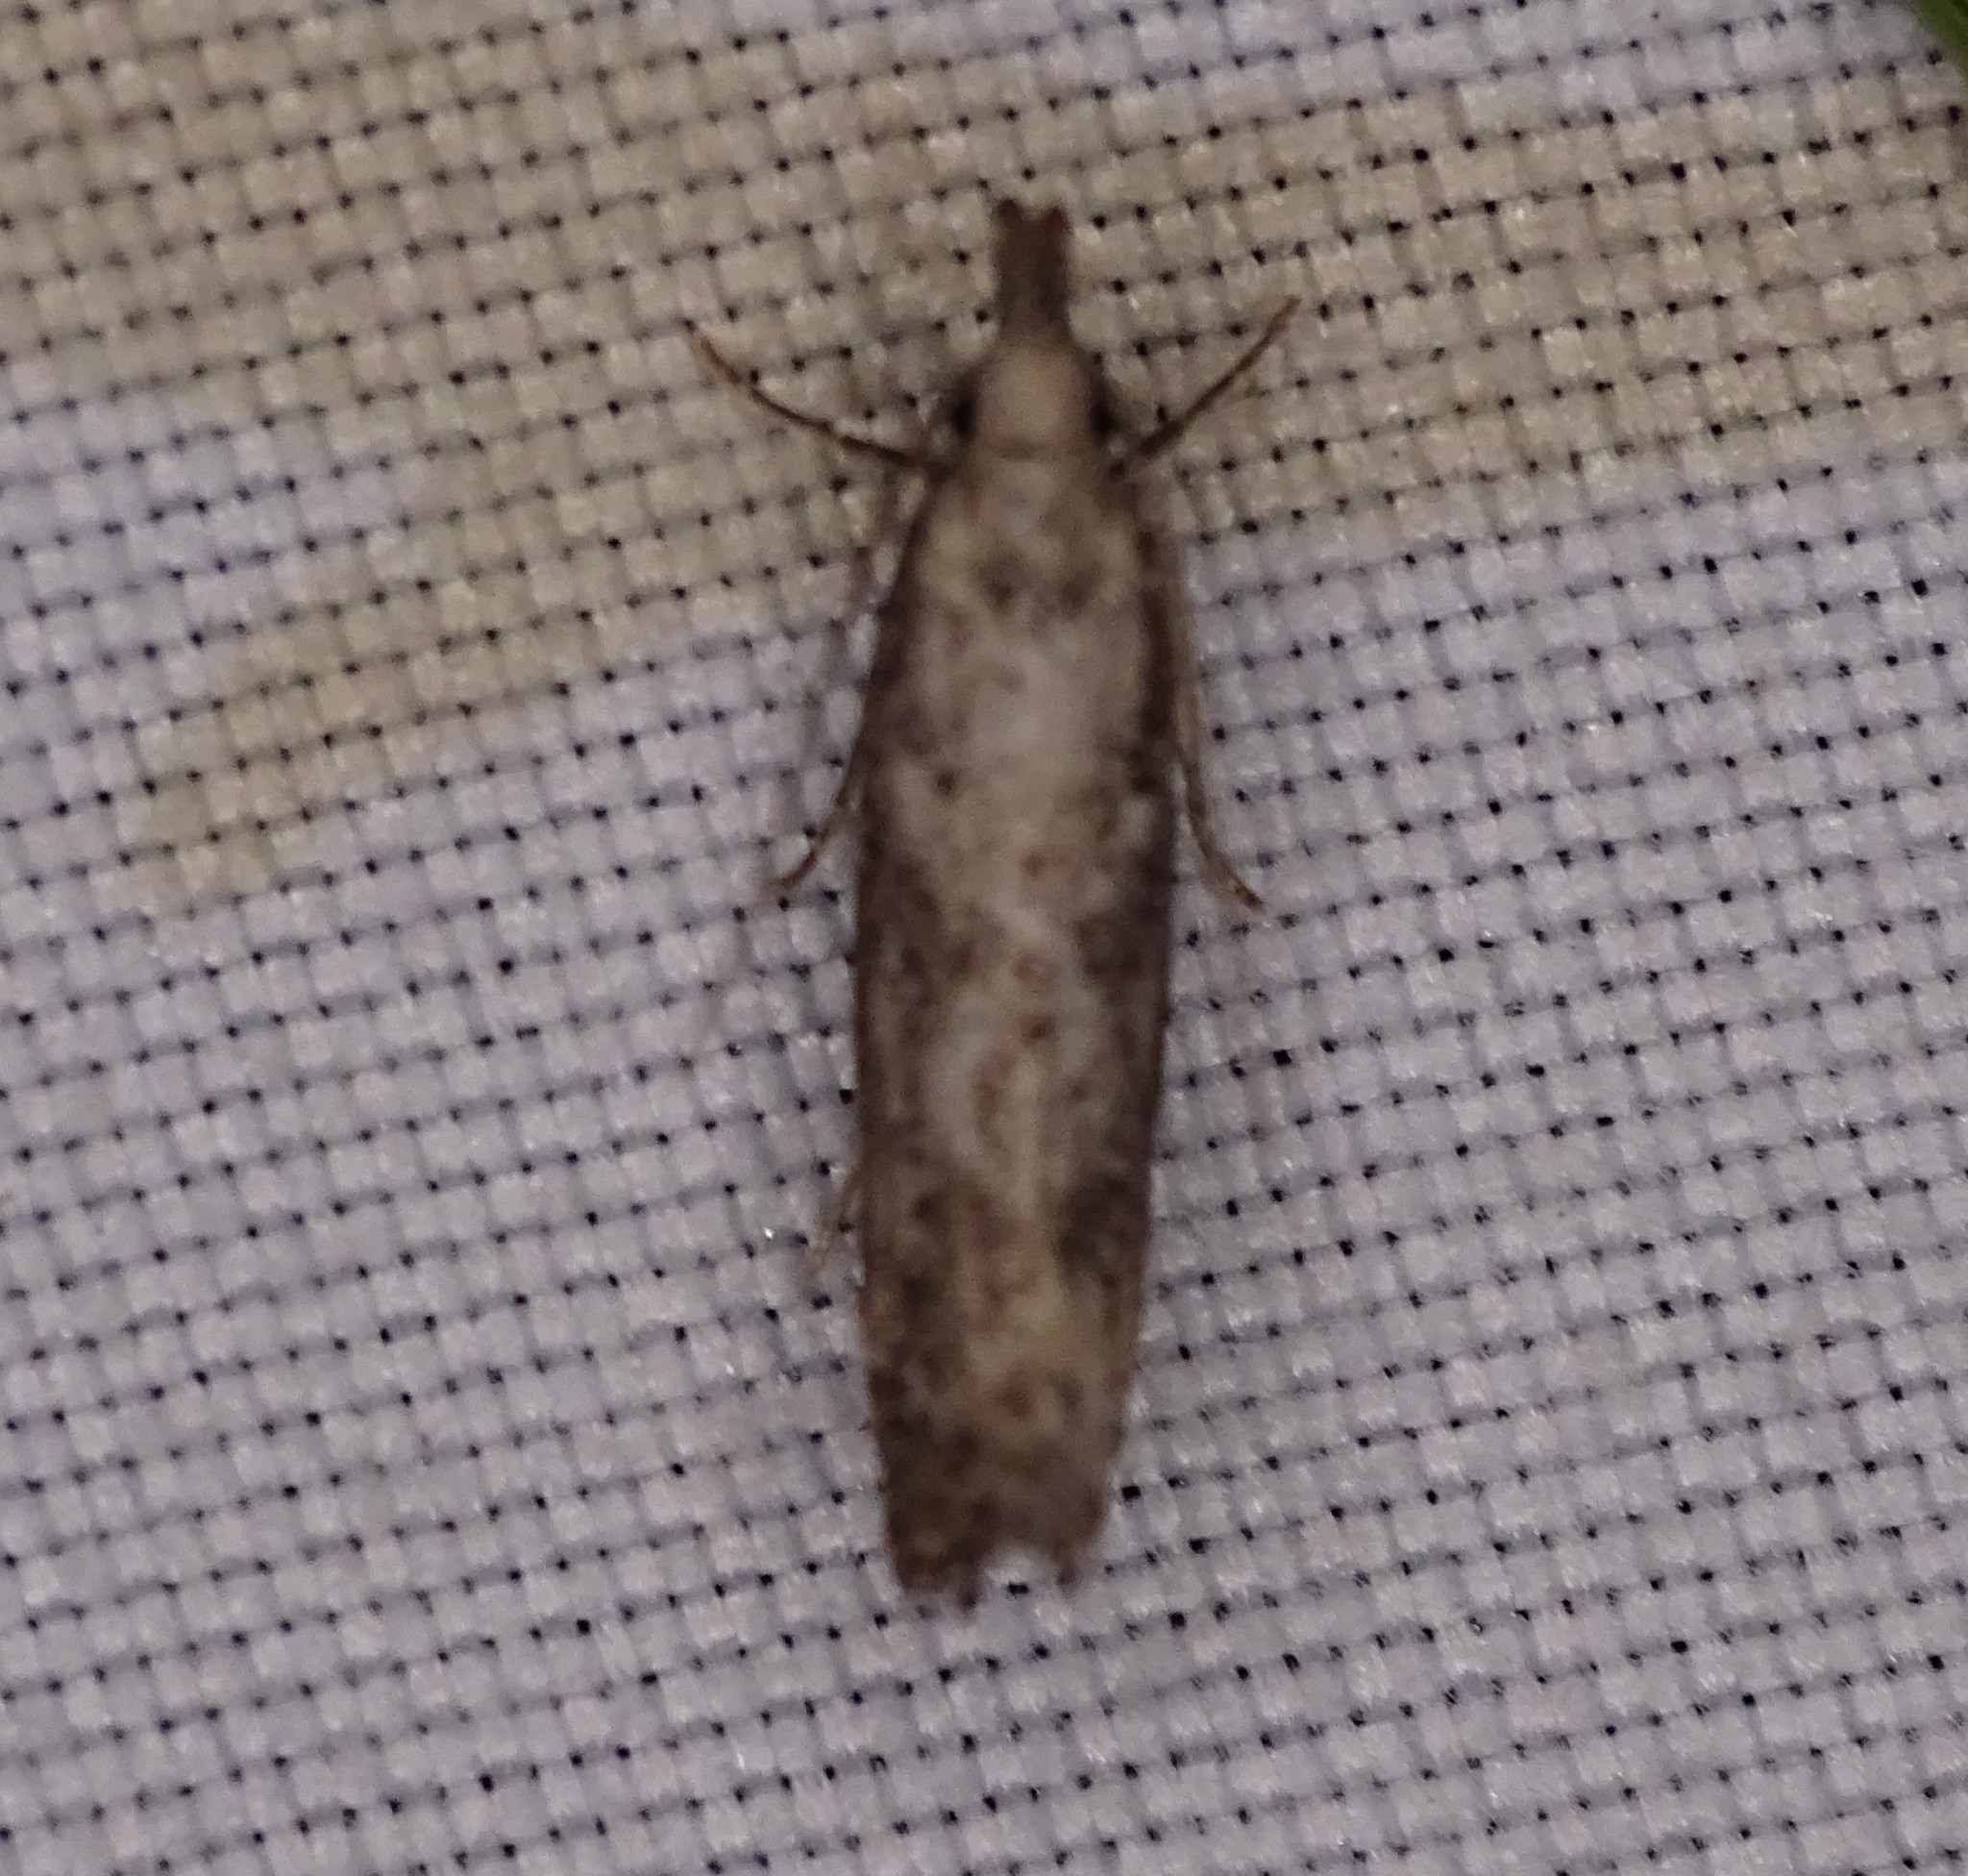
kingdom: Animalia
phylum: Arthropoda
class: Insecta
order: Lepidoptera
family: Gelechiidae
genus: Dichomeris
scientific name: Dichomeris inversella
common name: Inverse dichomeris moth
